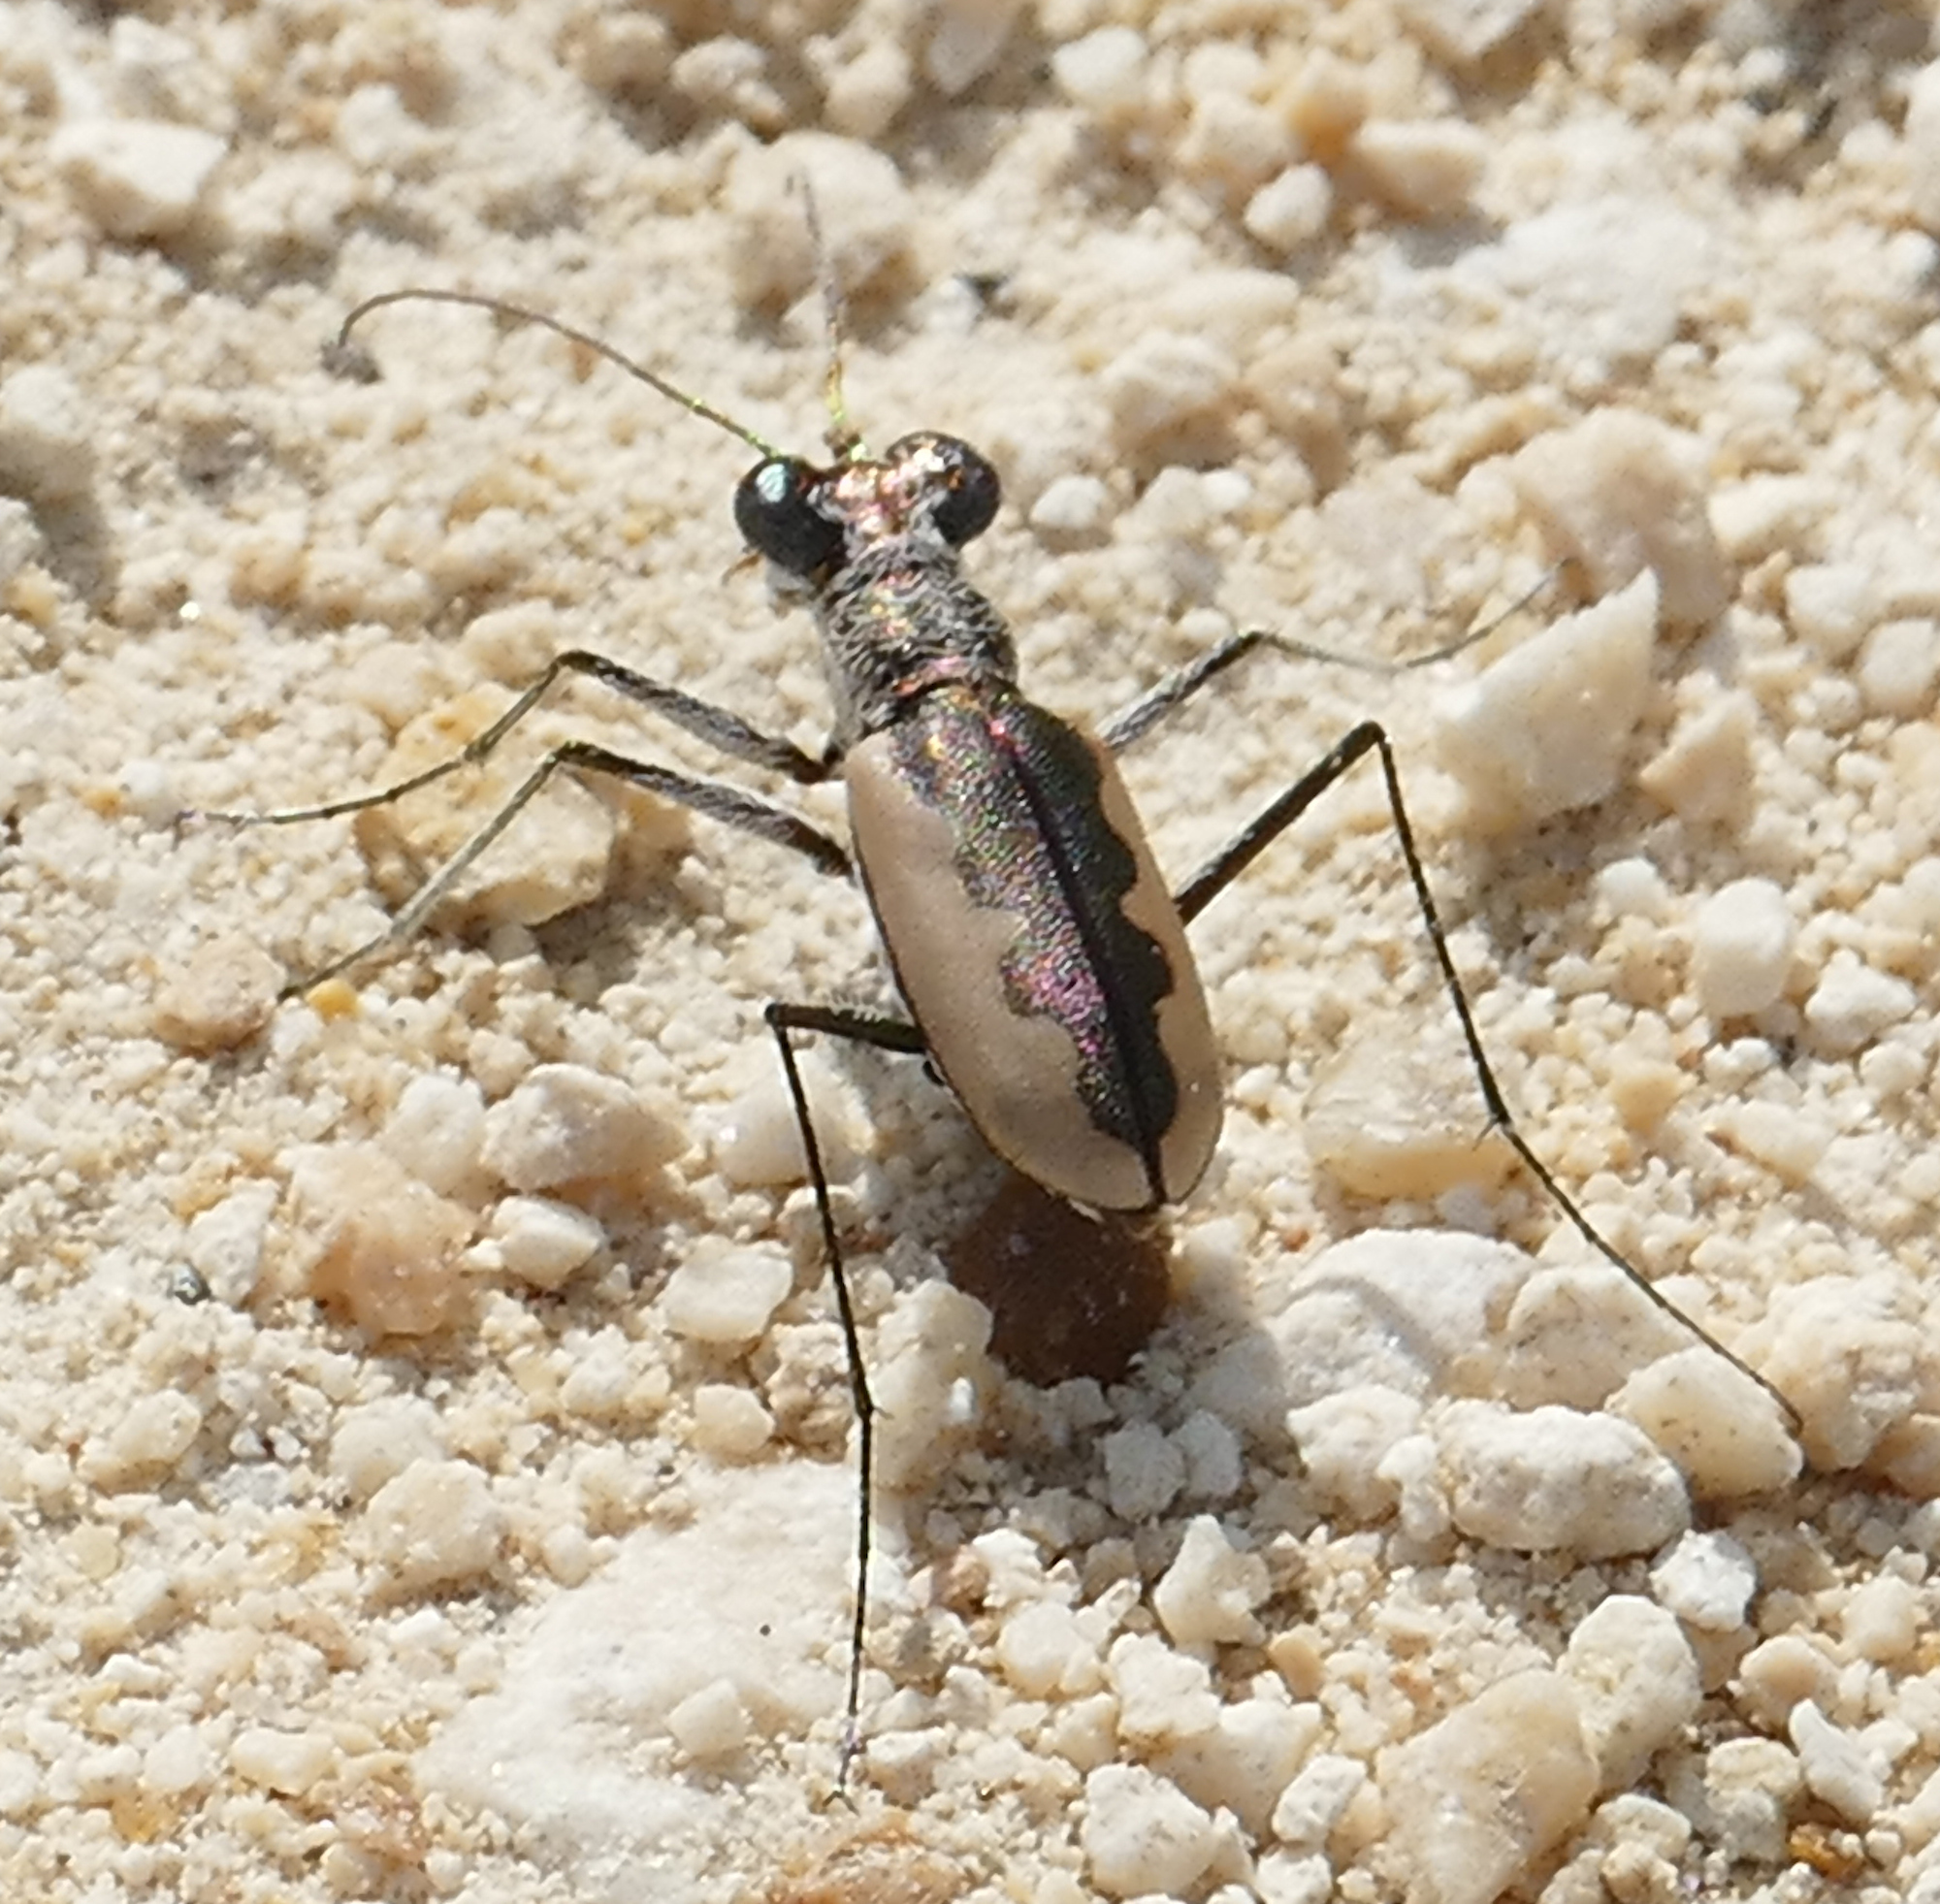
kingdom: Animalia
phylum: Arthropoda
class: Insecta
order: Coleoptera
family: Carabidae
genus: Eunota
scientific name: Eunota togata
